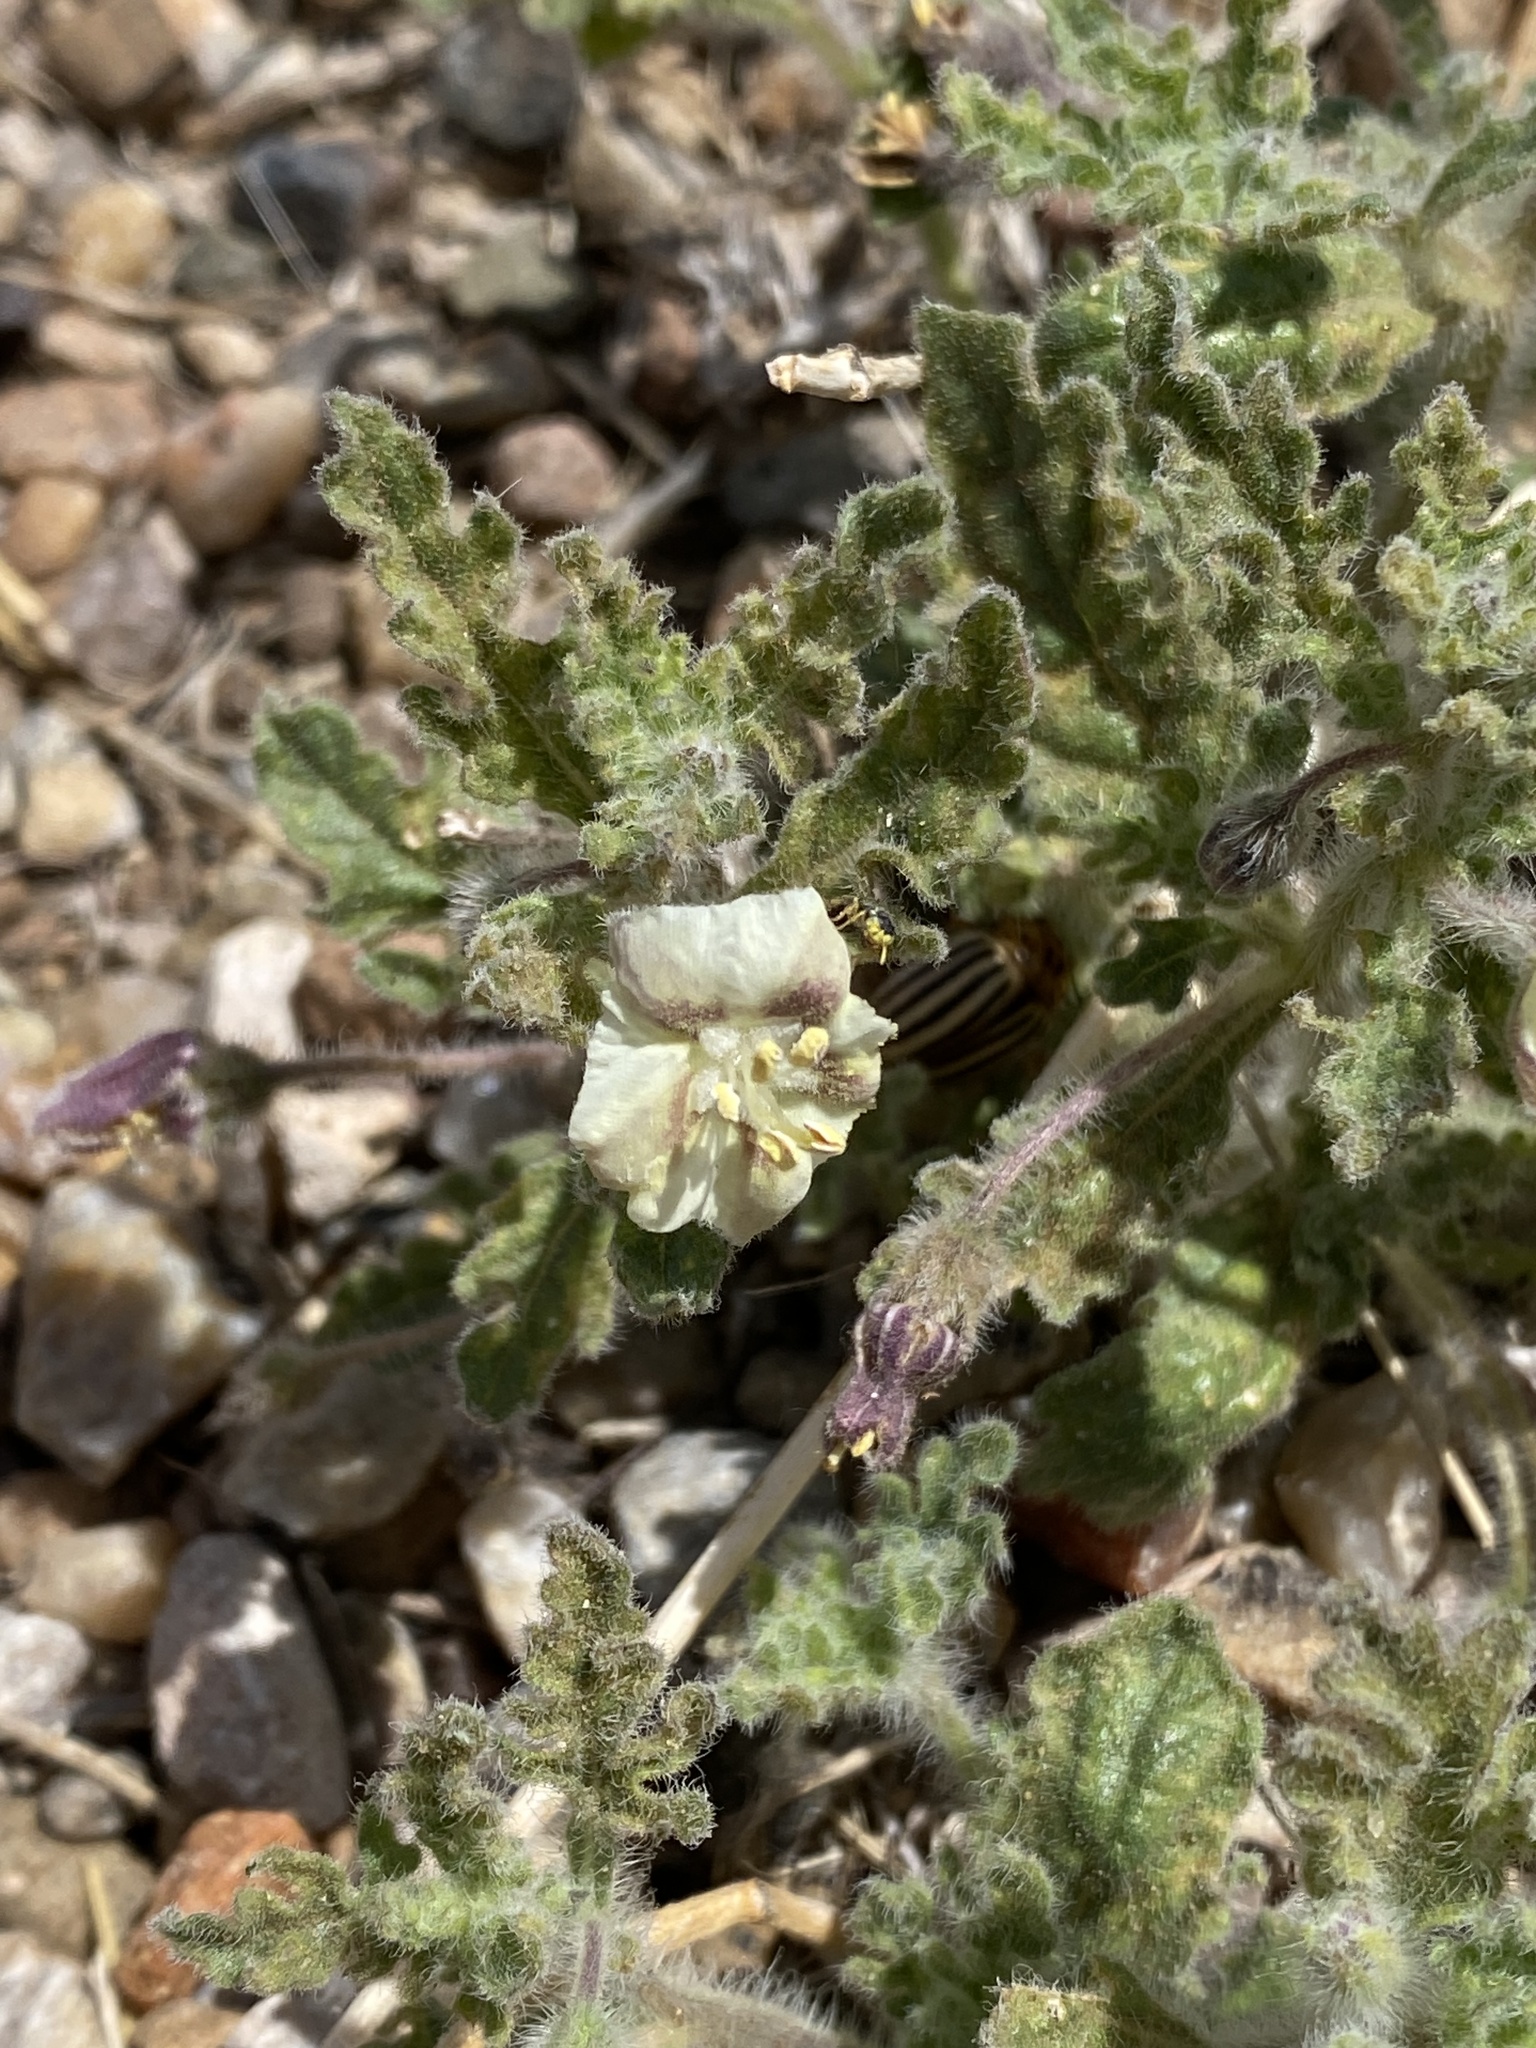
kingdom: Plantae
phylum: Tracheophyta
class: Magnoliopsida
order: Solanales
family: Solanaceae
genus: Chamaesaracha
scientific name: Chamaesaracha coniodes
